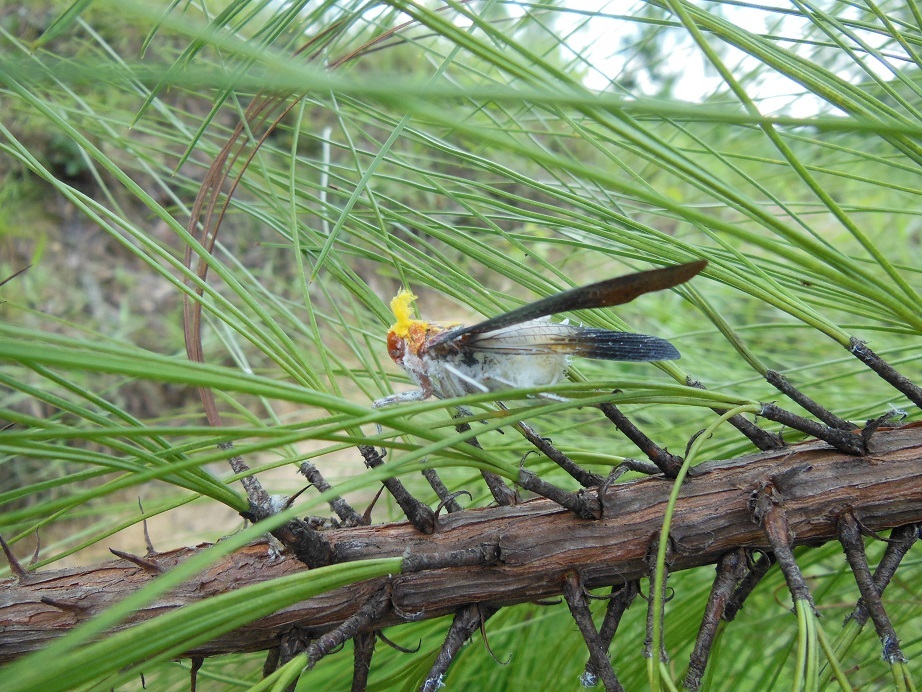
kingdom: Animalia
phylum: Arthropoda
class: Insecta
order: Hemiptera
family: Fulgoridae
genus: Cerogenes
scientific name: Cerogenes auricoma
